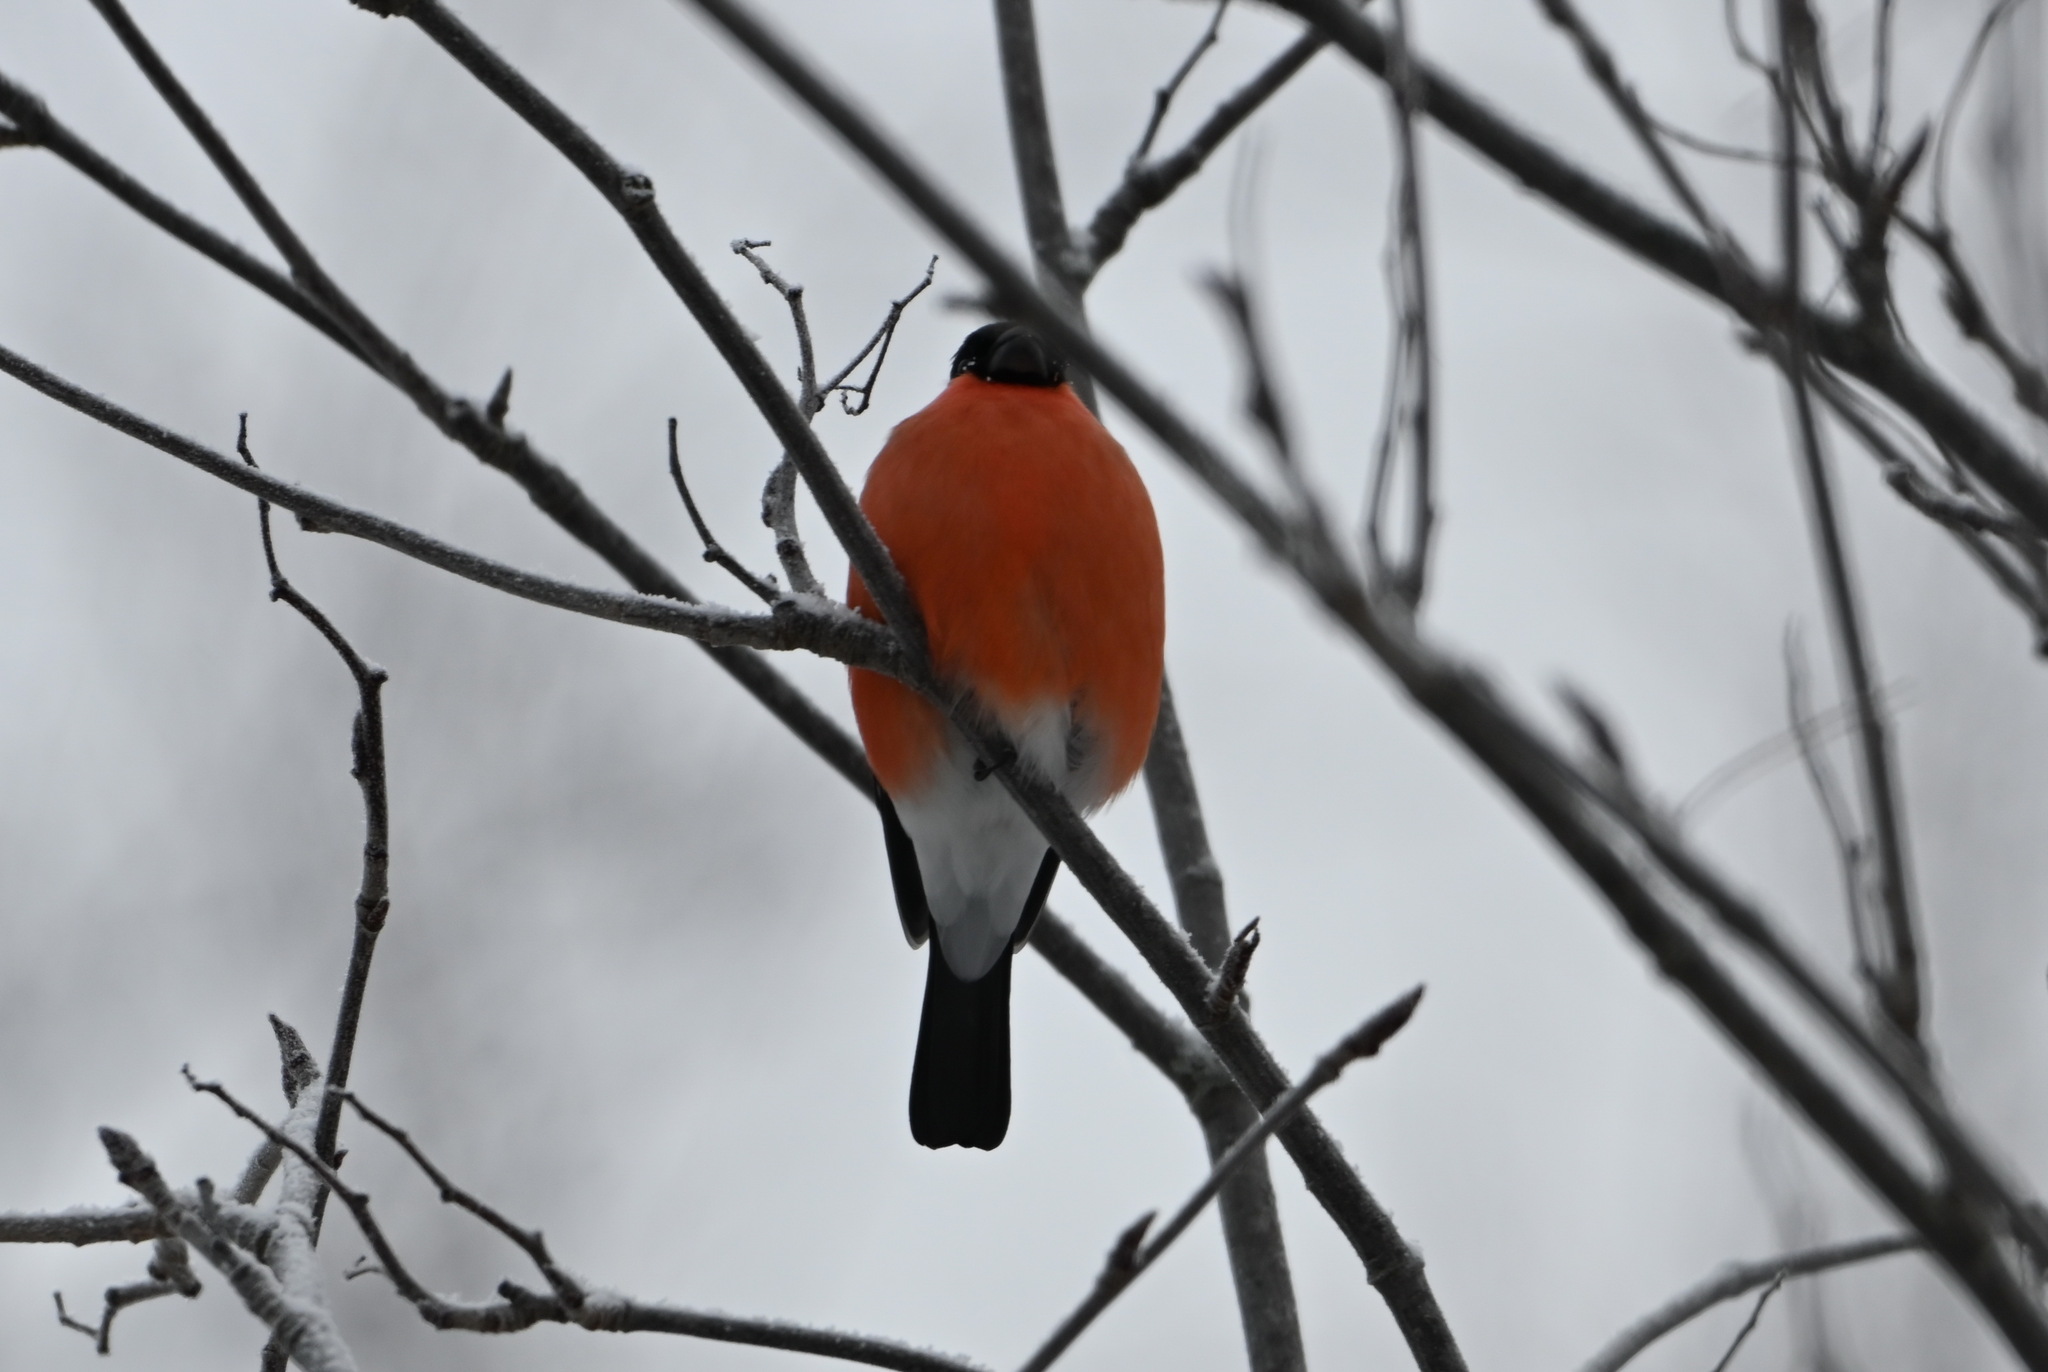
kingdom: Animalia
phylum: Chordata
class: Aves
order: Passeriformes
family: Fringillidae
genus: Pyrrhula
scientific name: Pyrrhula pyrrhula
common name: Eurasian bullfinch
